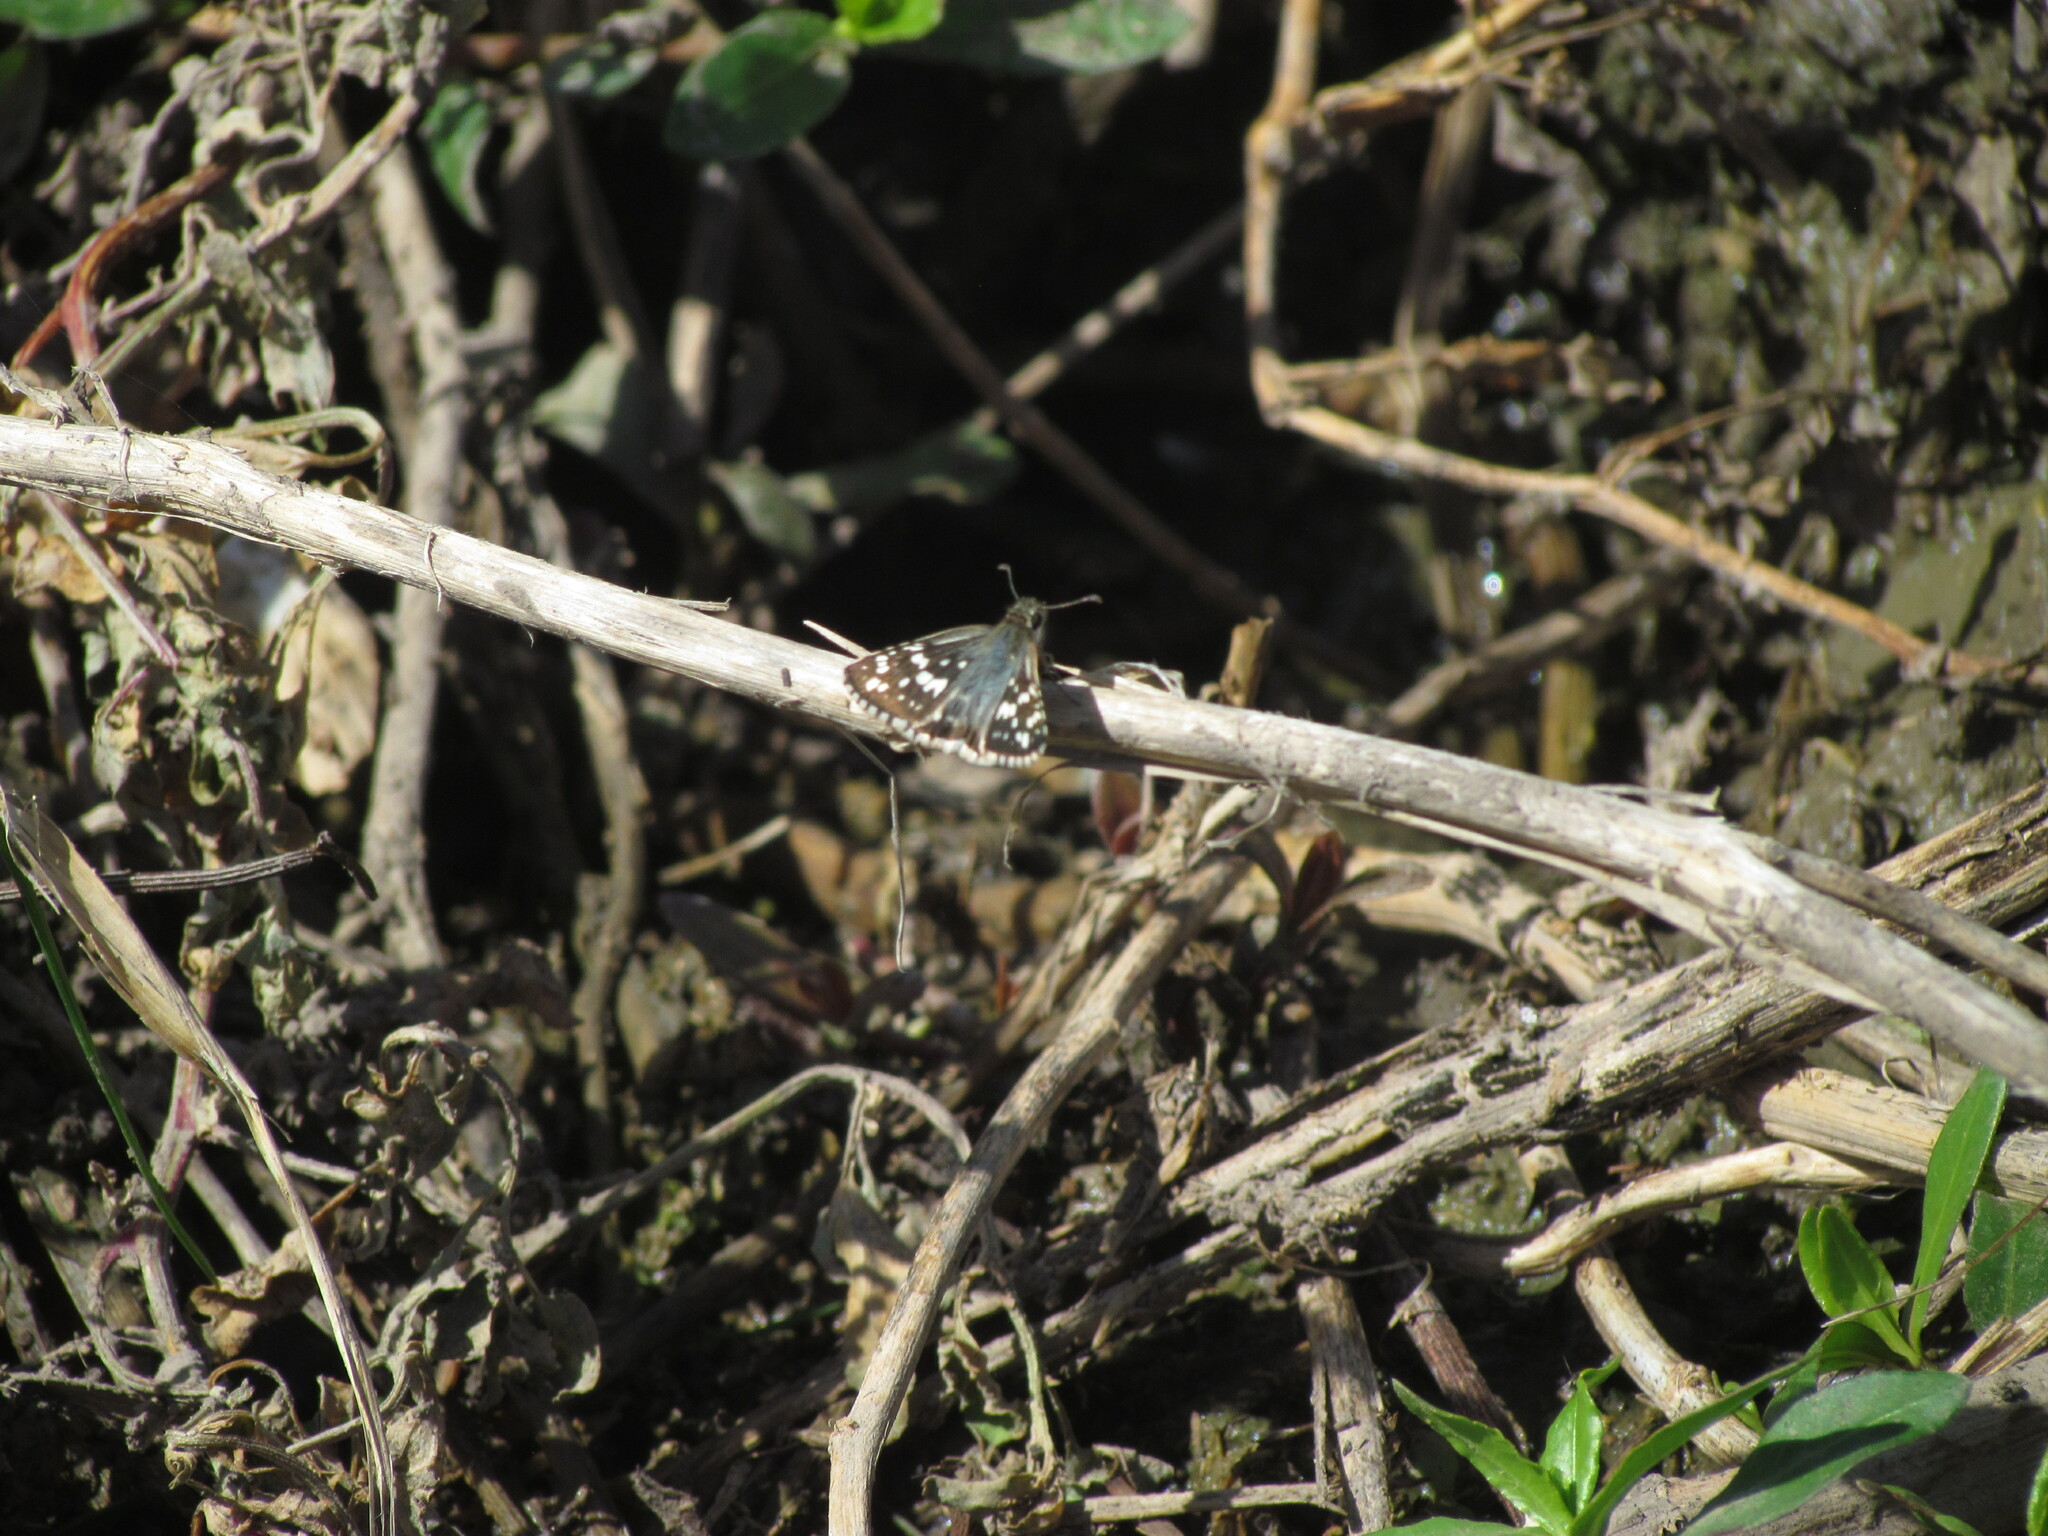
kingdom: Animalia
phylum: Arthropoda
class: Insecta
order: Lepidoptera
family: Hesperiidae
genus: Burnsius
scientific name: Burnsius orcynoides
